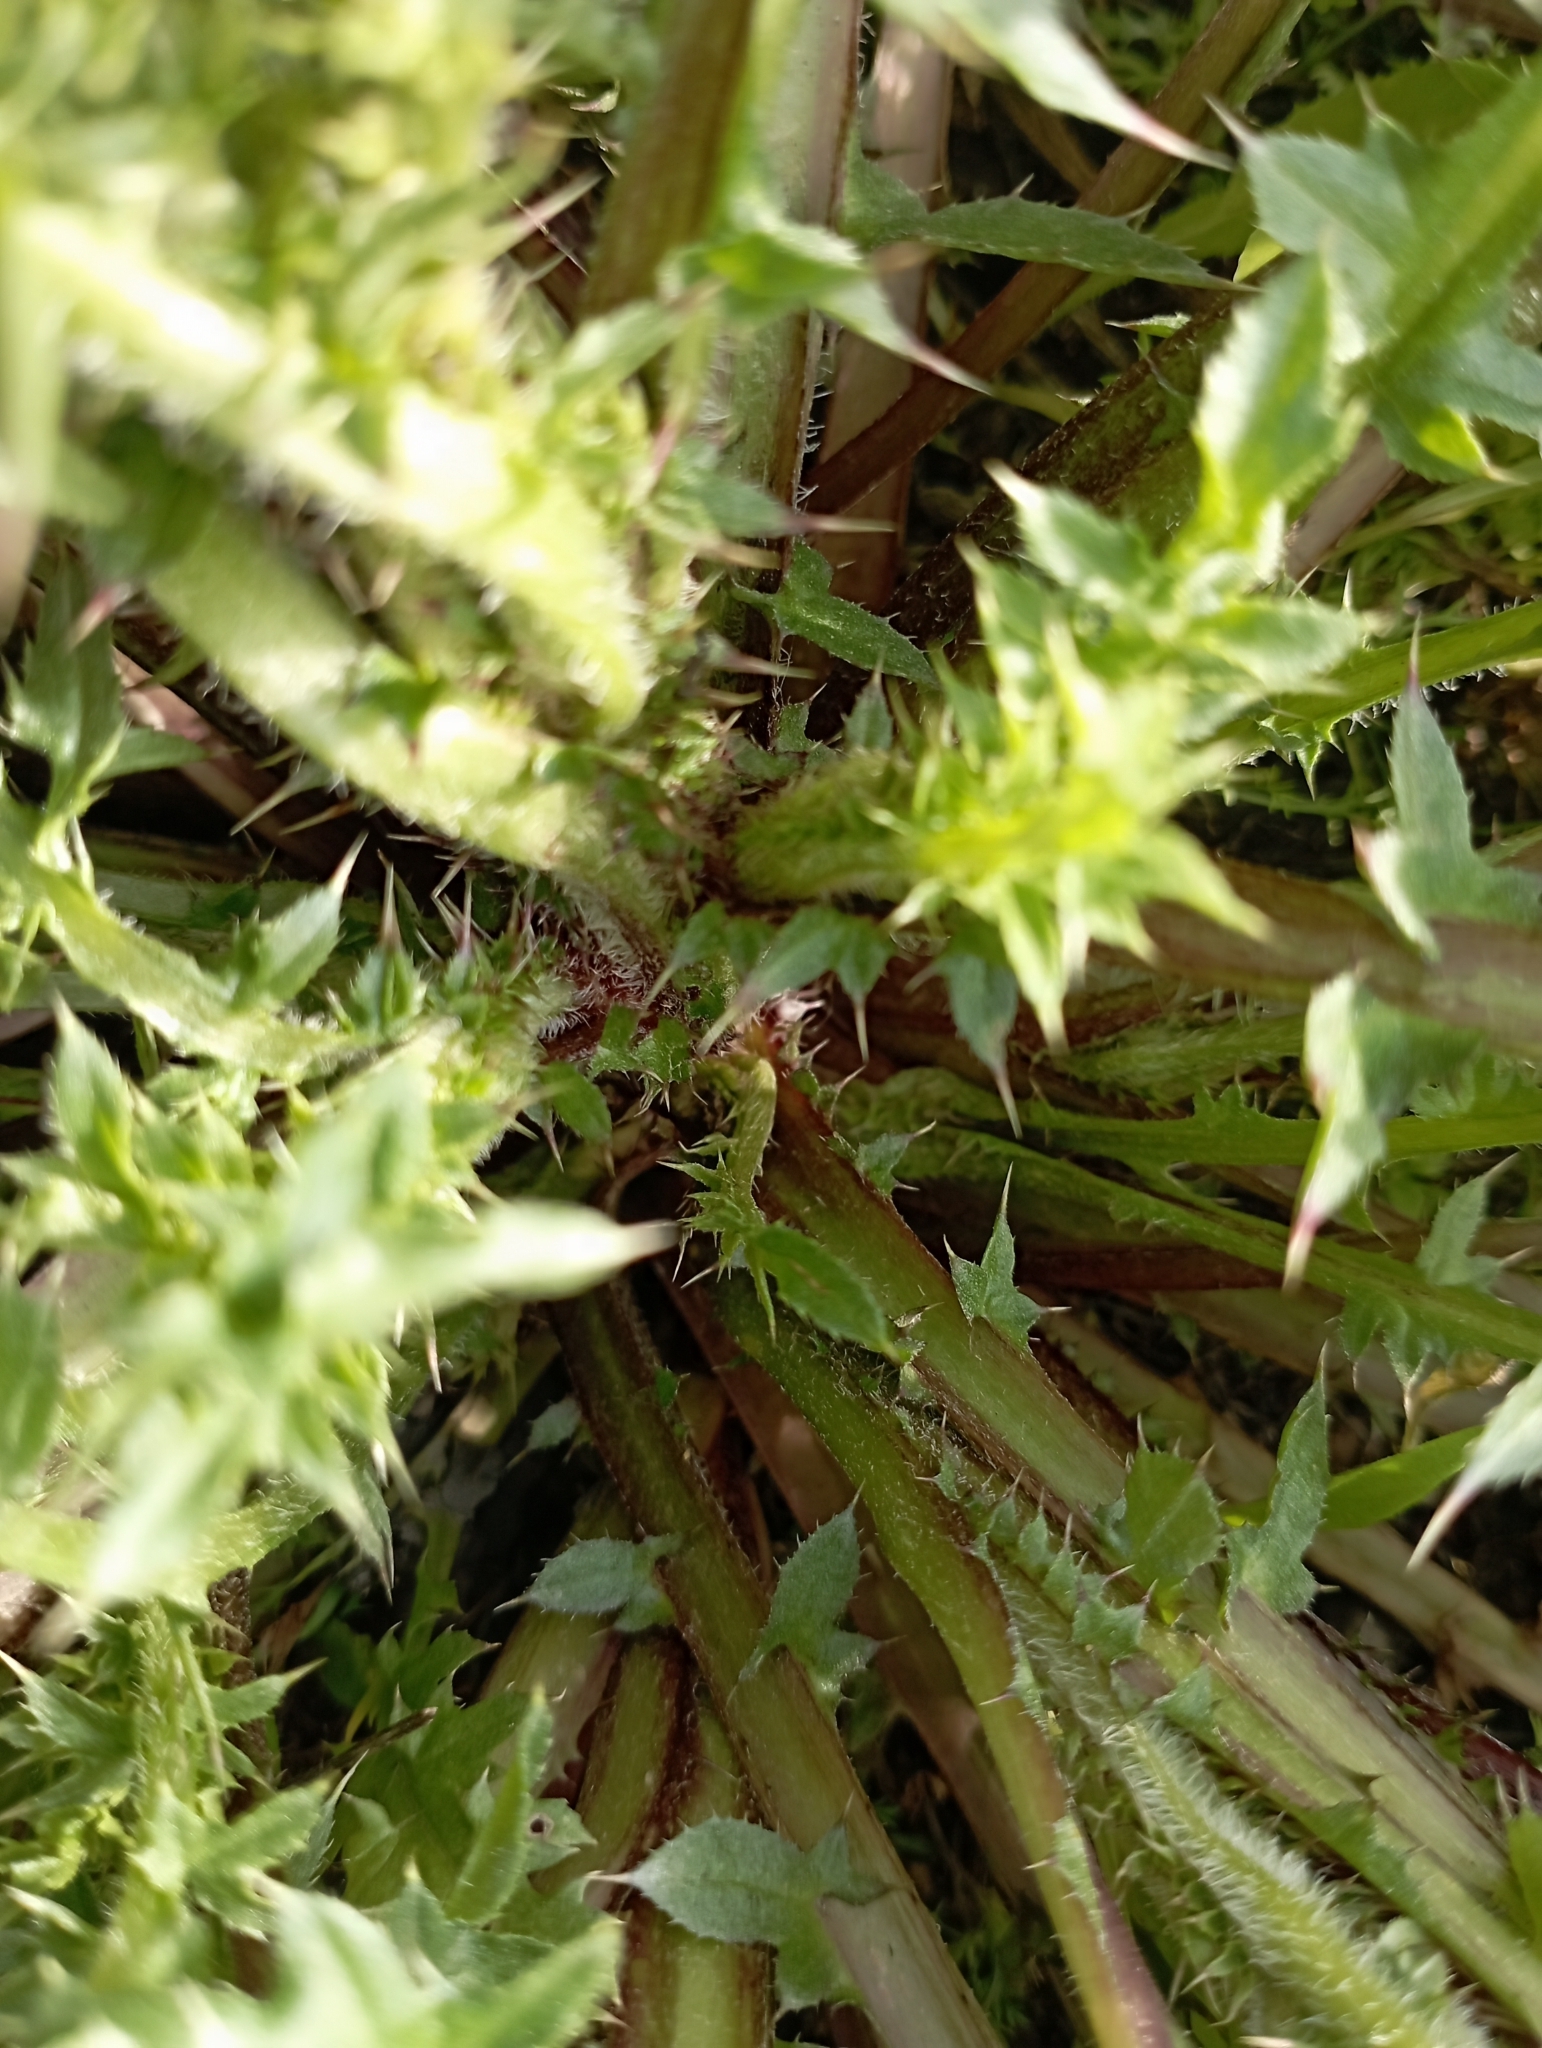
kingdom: Plantae
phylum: Tracheophyta
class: Magnoliopsida
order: Asterales
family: Asteraceae
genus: Carduus
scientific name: Carduus acanthoides
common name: Plumeless thistle
